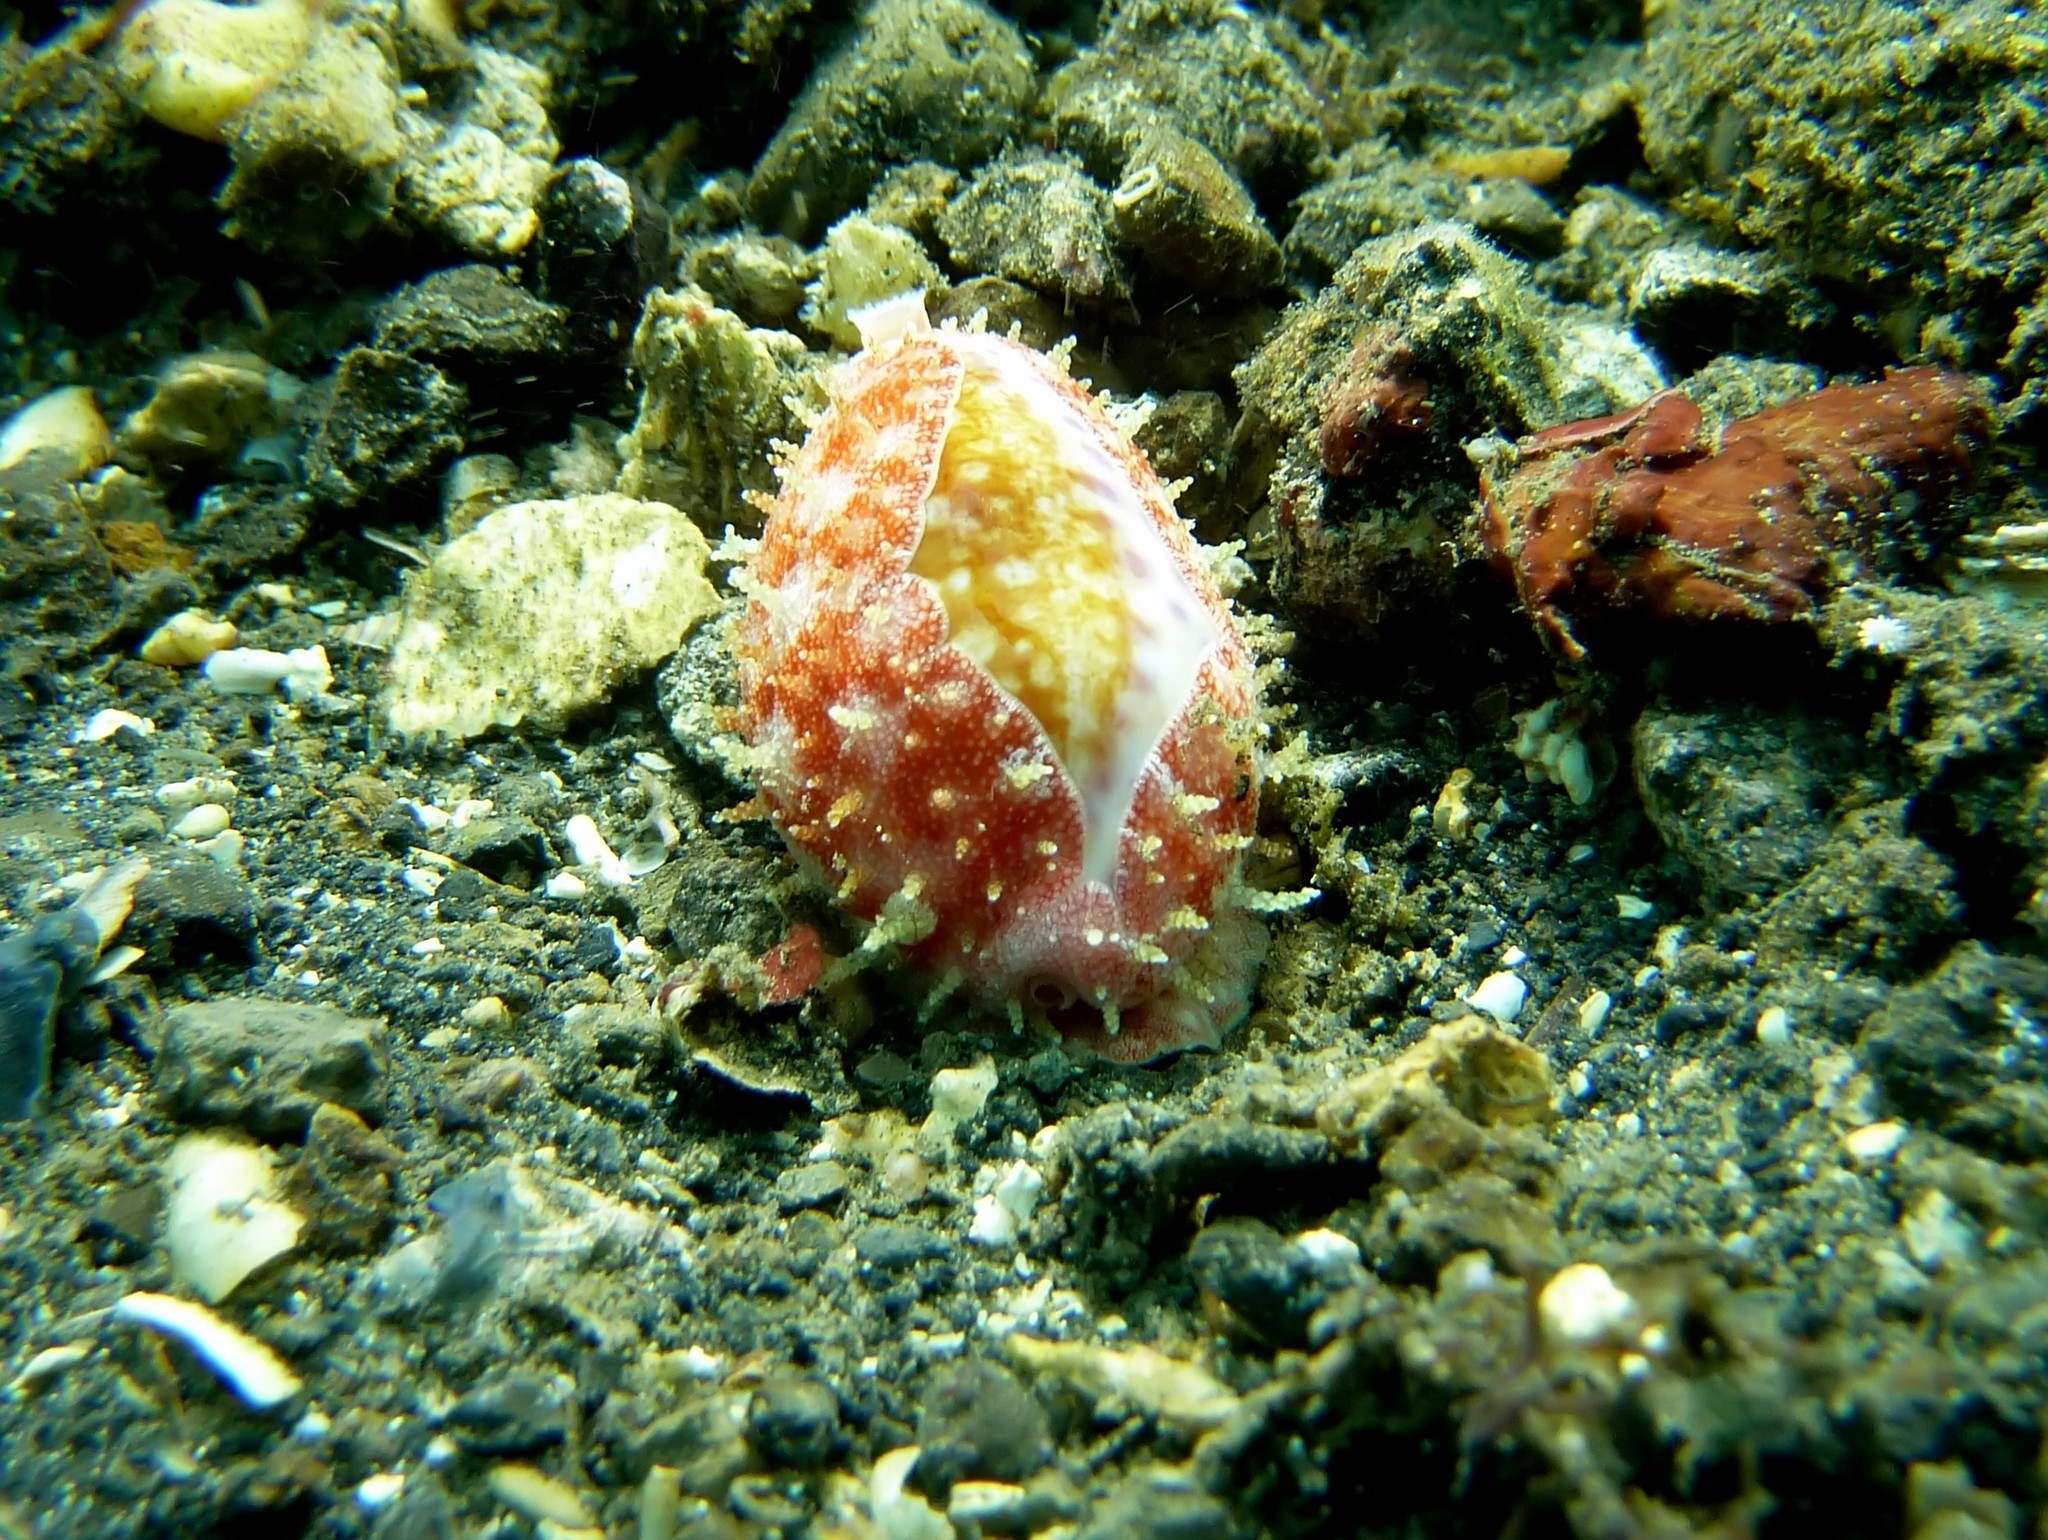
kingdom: Animalia
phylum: Mollusca
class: Gastropoda
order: Littorinimorpha
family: Cypraeidae
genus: Ovatipsa
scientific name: Ovatipsa chinensis
